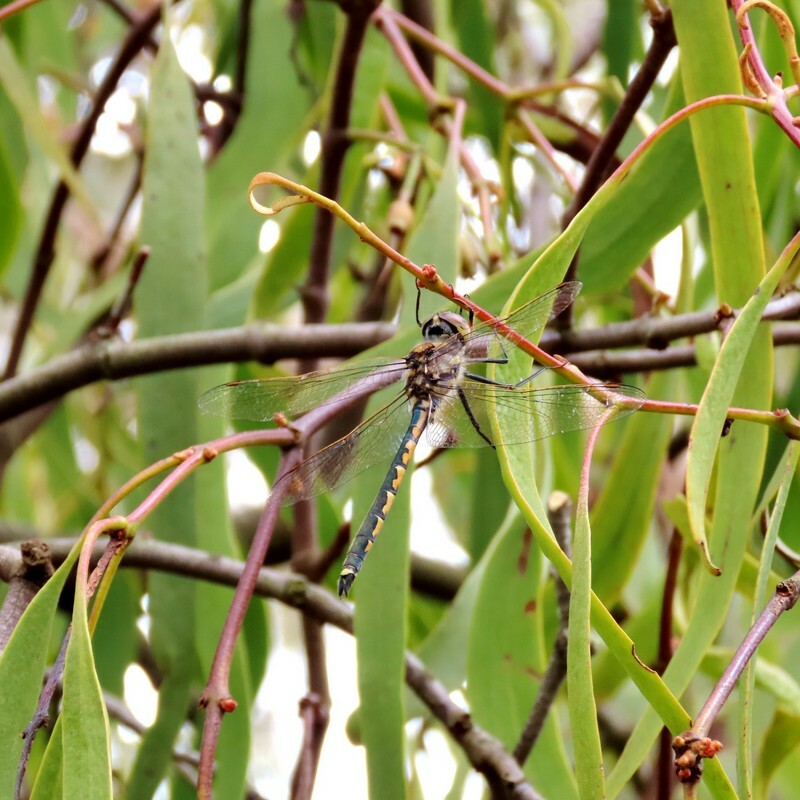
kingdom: Animalia
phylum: Arthropoda
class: Insecta
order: Odonata
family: Corduliidae
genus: Hemicordulia
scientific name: Hemicordulia tau
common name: Tau emerald
